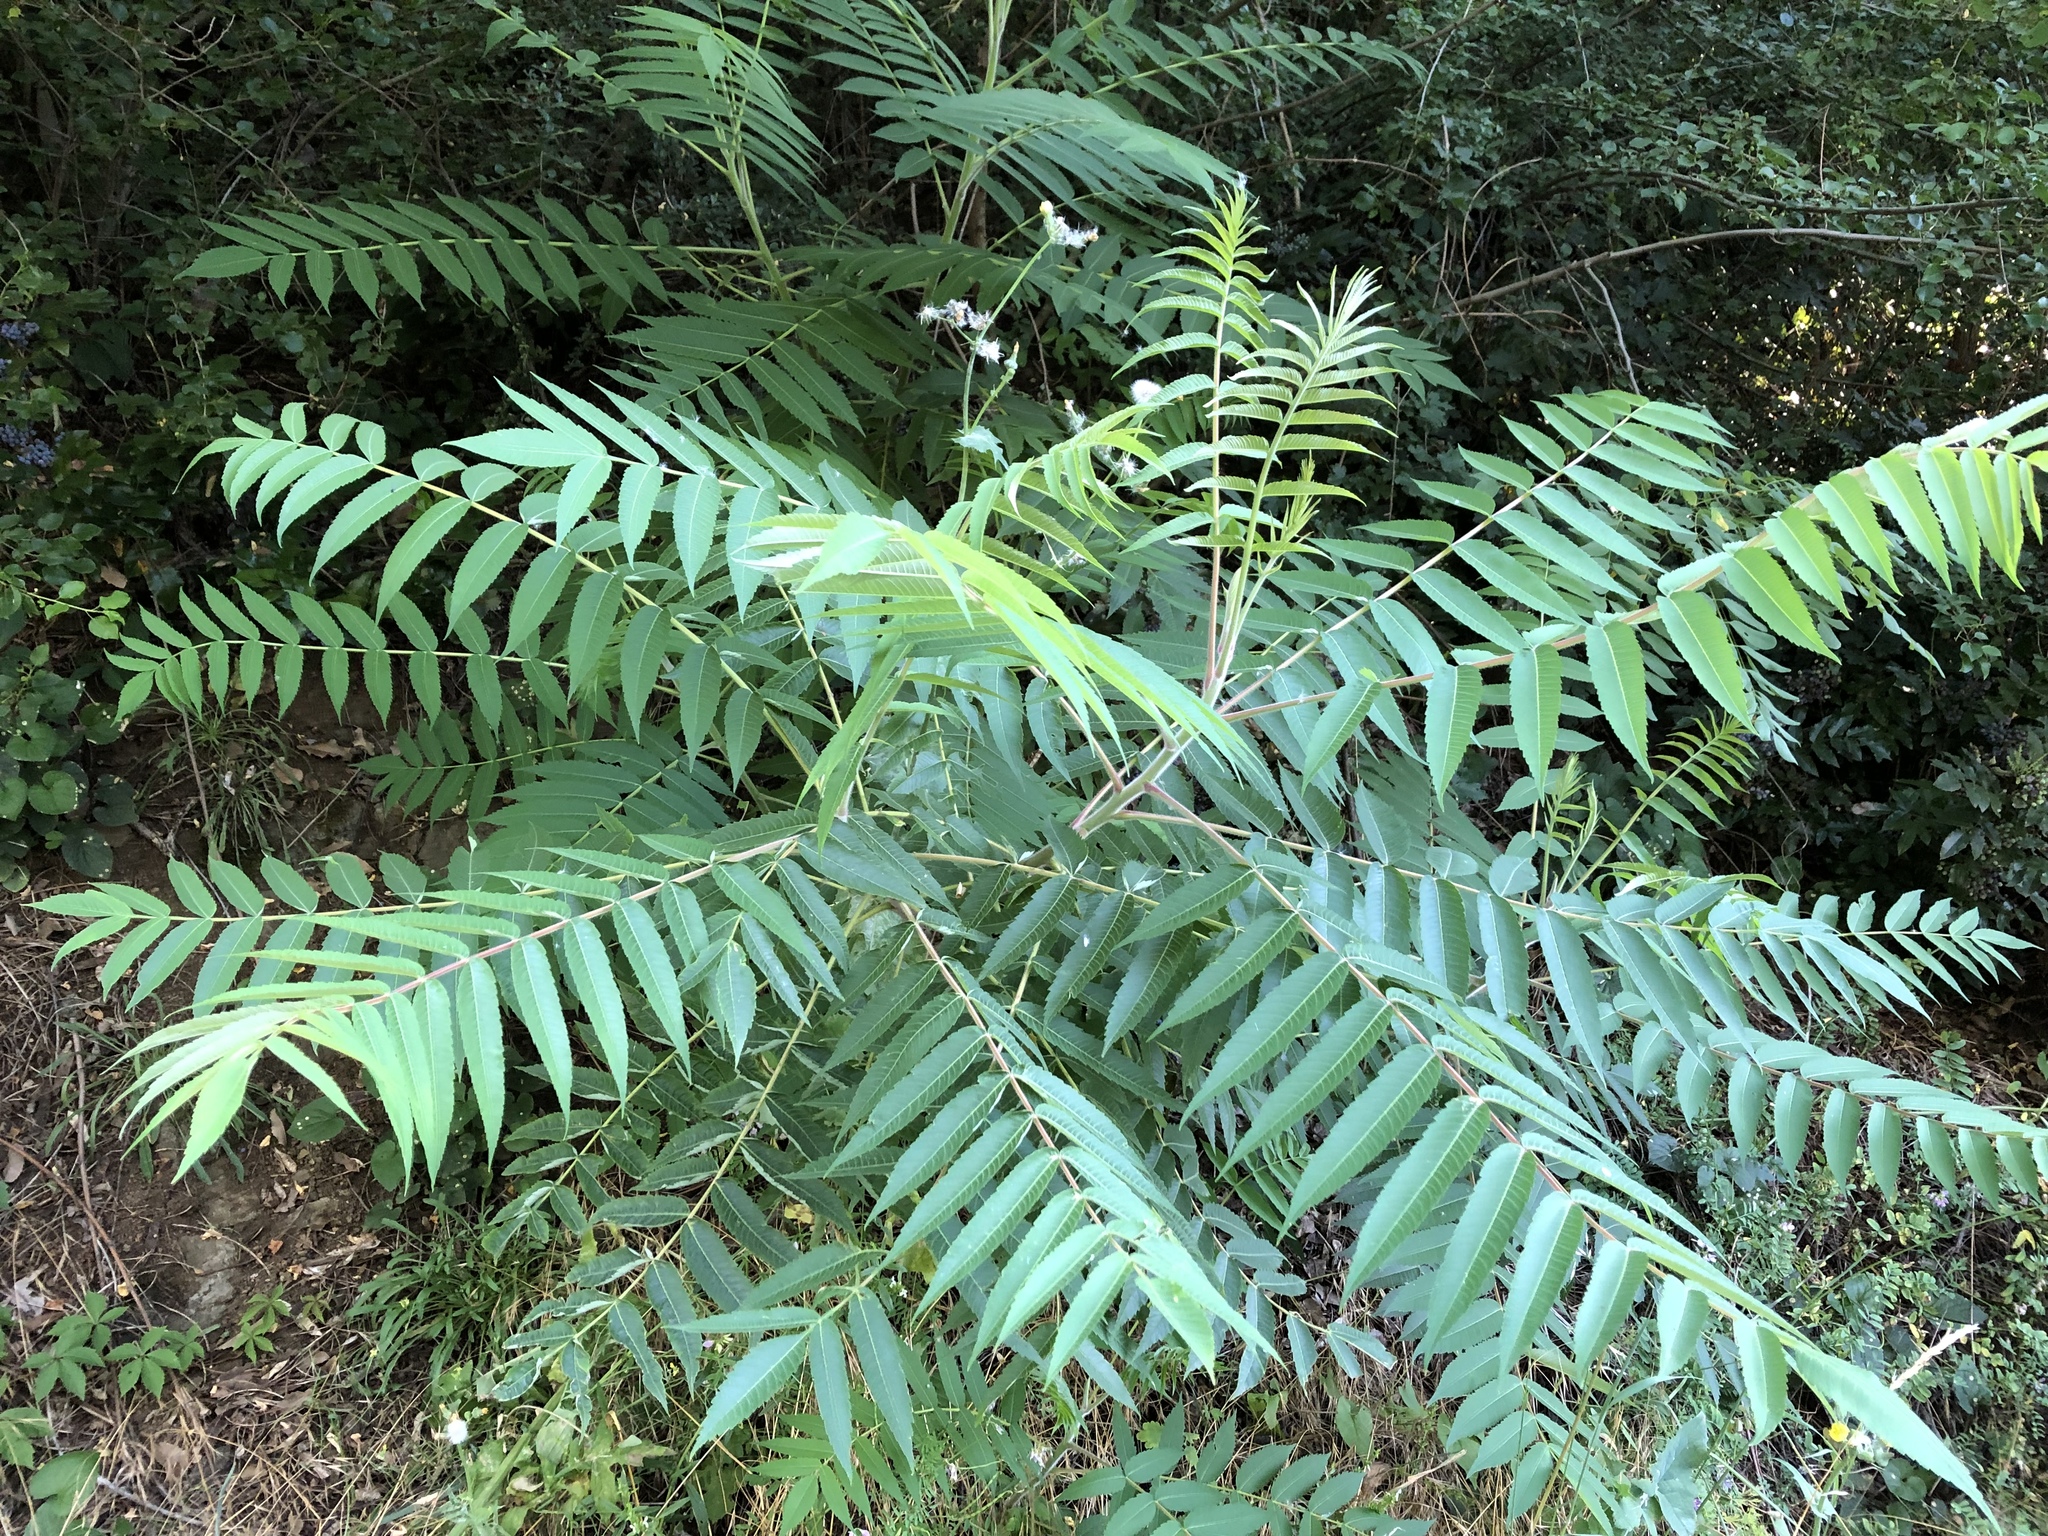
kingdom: Plantae
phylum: Tracheophyta
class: Magnoliopsida
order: Sapindales
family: Anacardiaceae
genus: Rhus
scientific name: Rhus typhina
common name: Staghorn sumac
